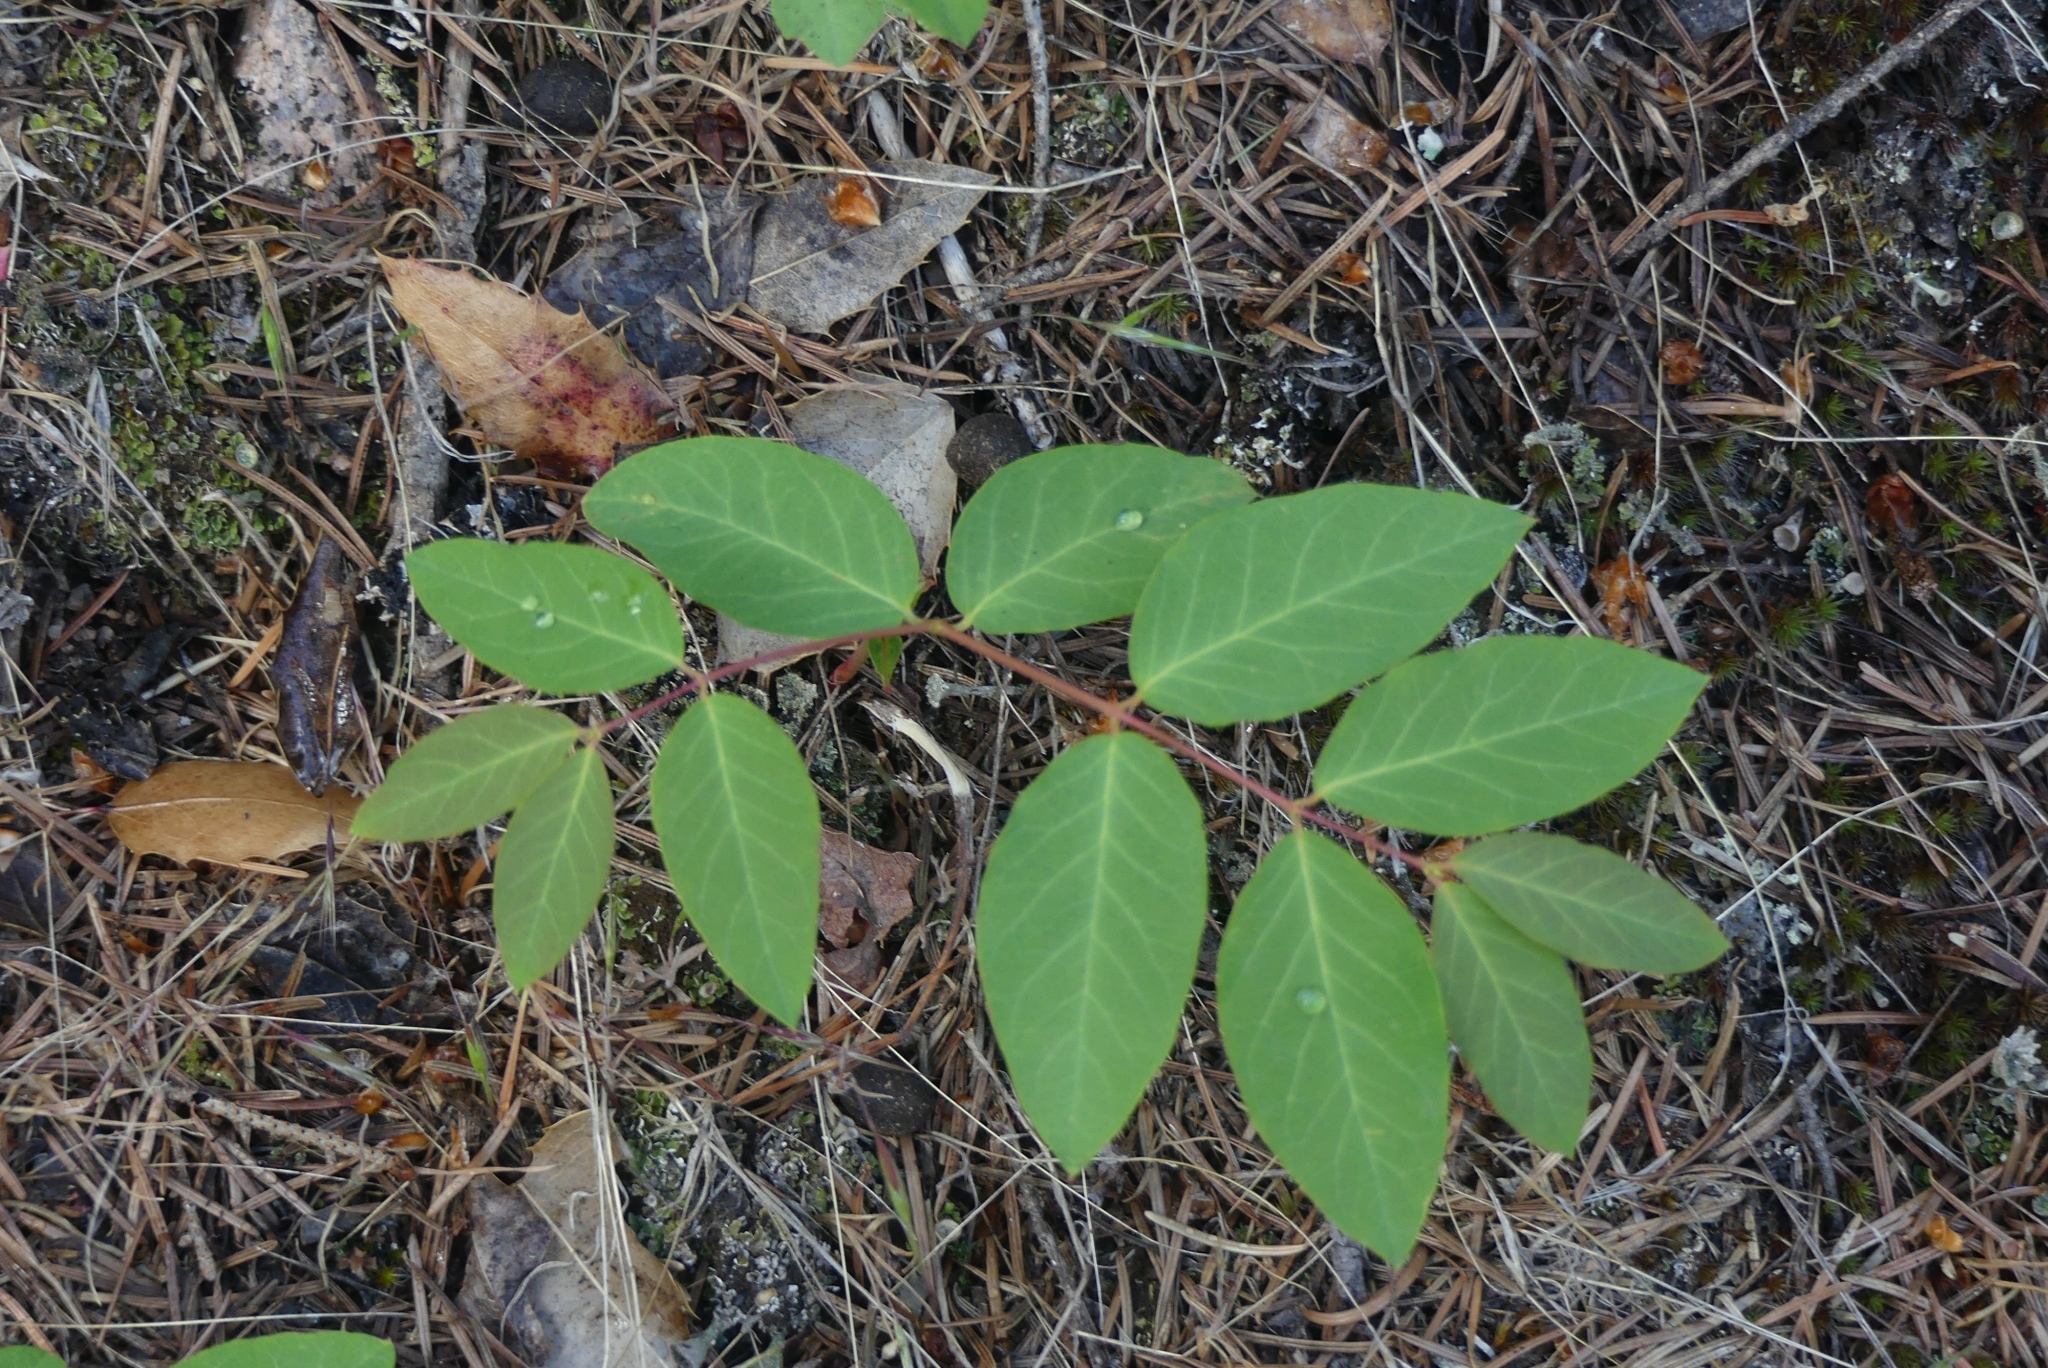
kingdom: Plantae
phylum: Tracheophyta
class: Magnoliopsida
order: Gentianales
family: Apocynaceae
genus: Apocynum
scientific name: Apocynum androsaemifolium
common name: Spreading dogbane
